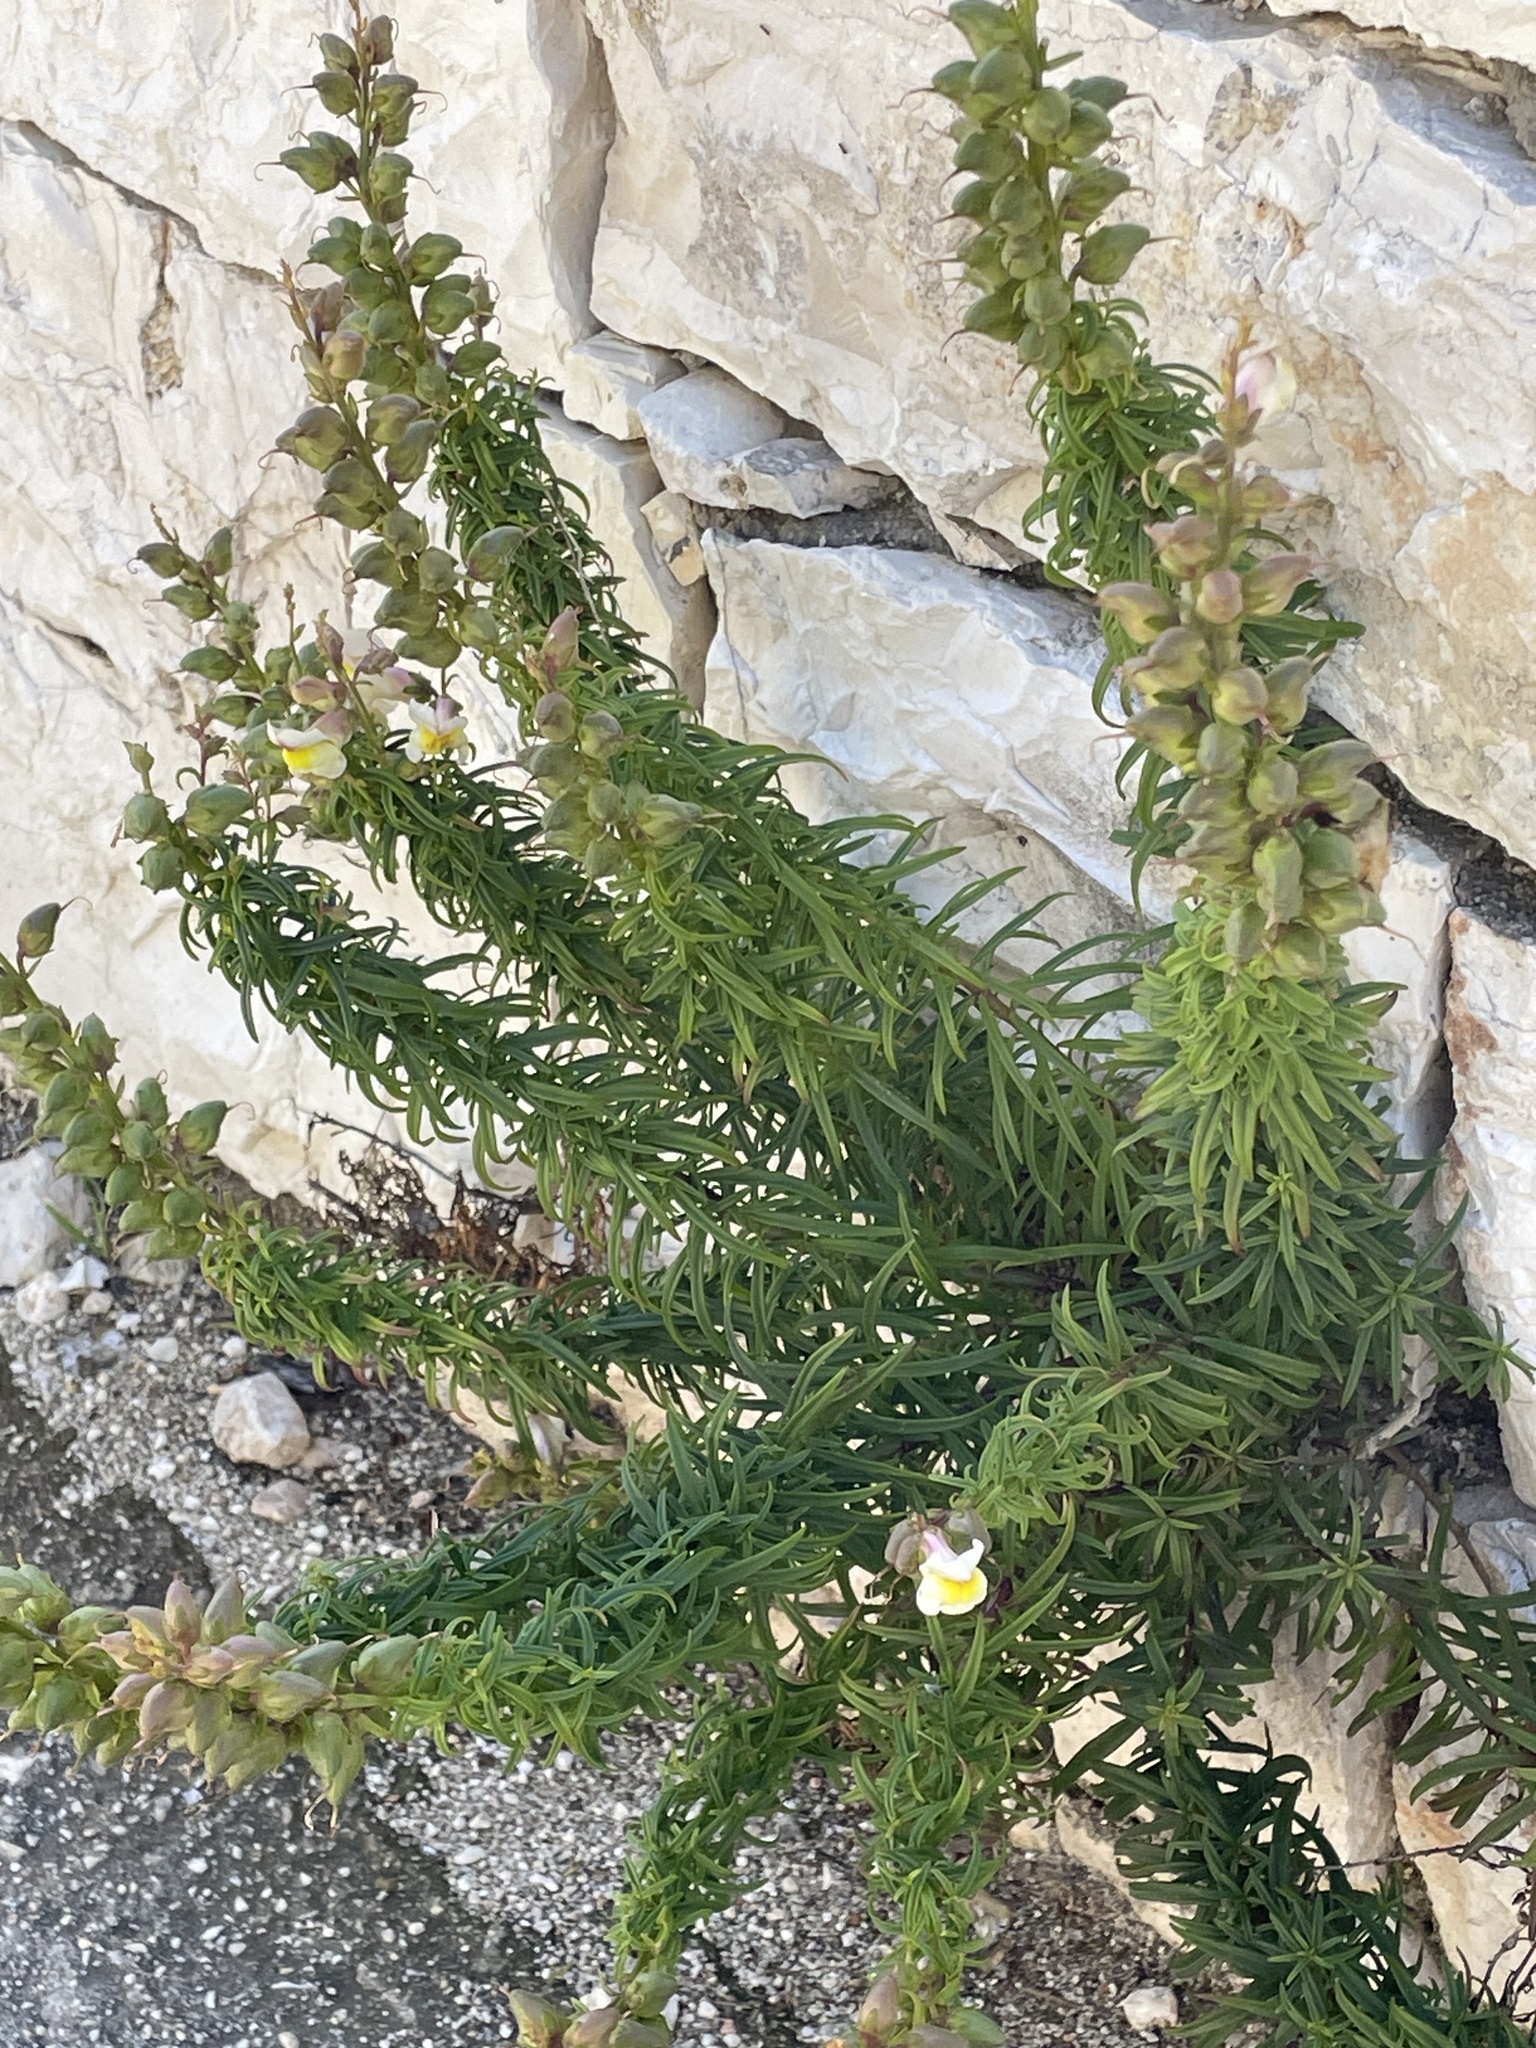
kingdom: Plantae
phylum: Tracheophyta
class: Magnoliopsida
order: Lamiales
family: Plantaginaceae
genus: Antirrhinum
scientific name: Antirrhinum siculum
